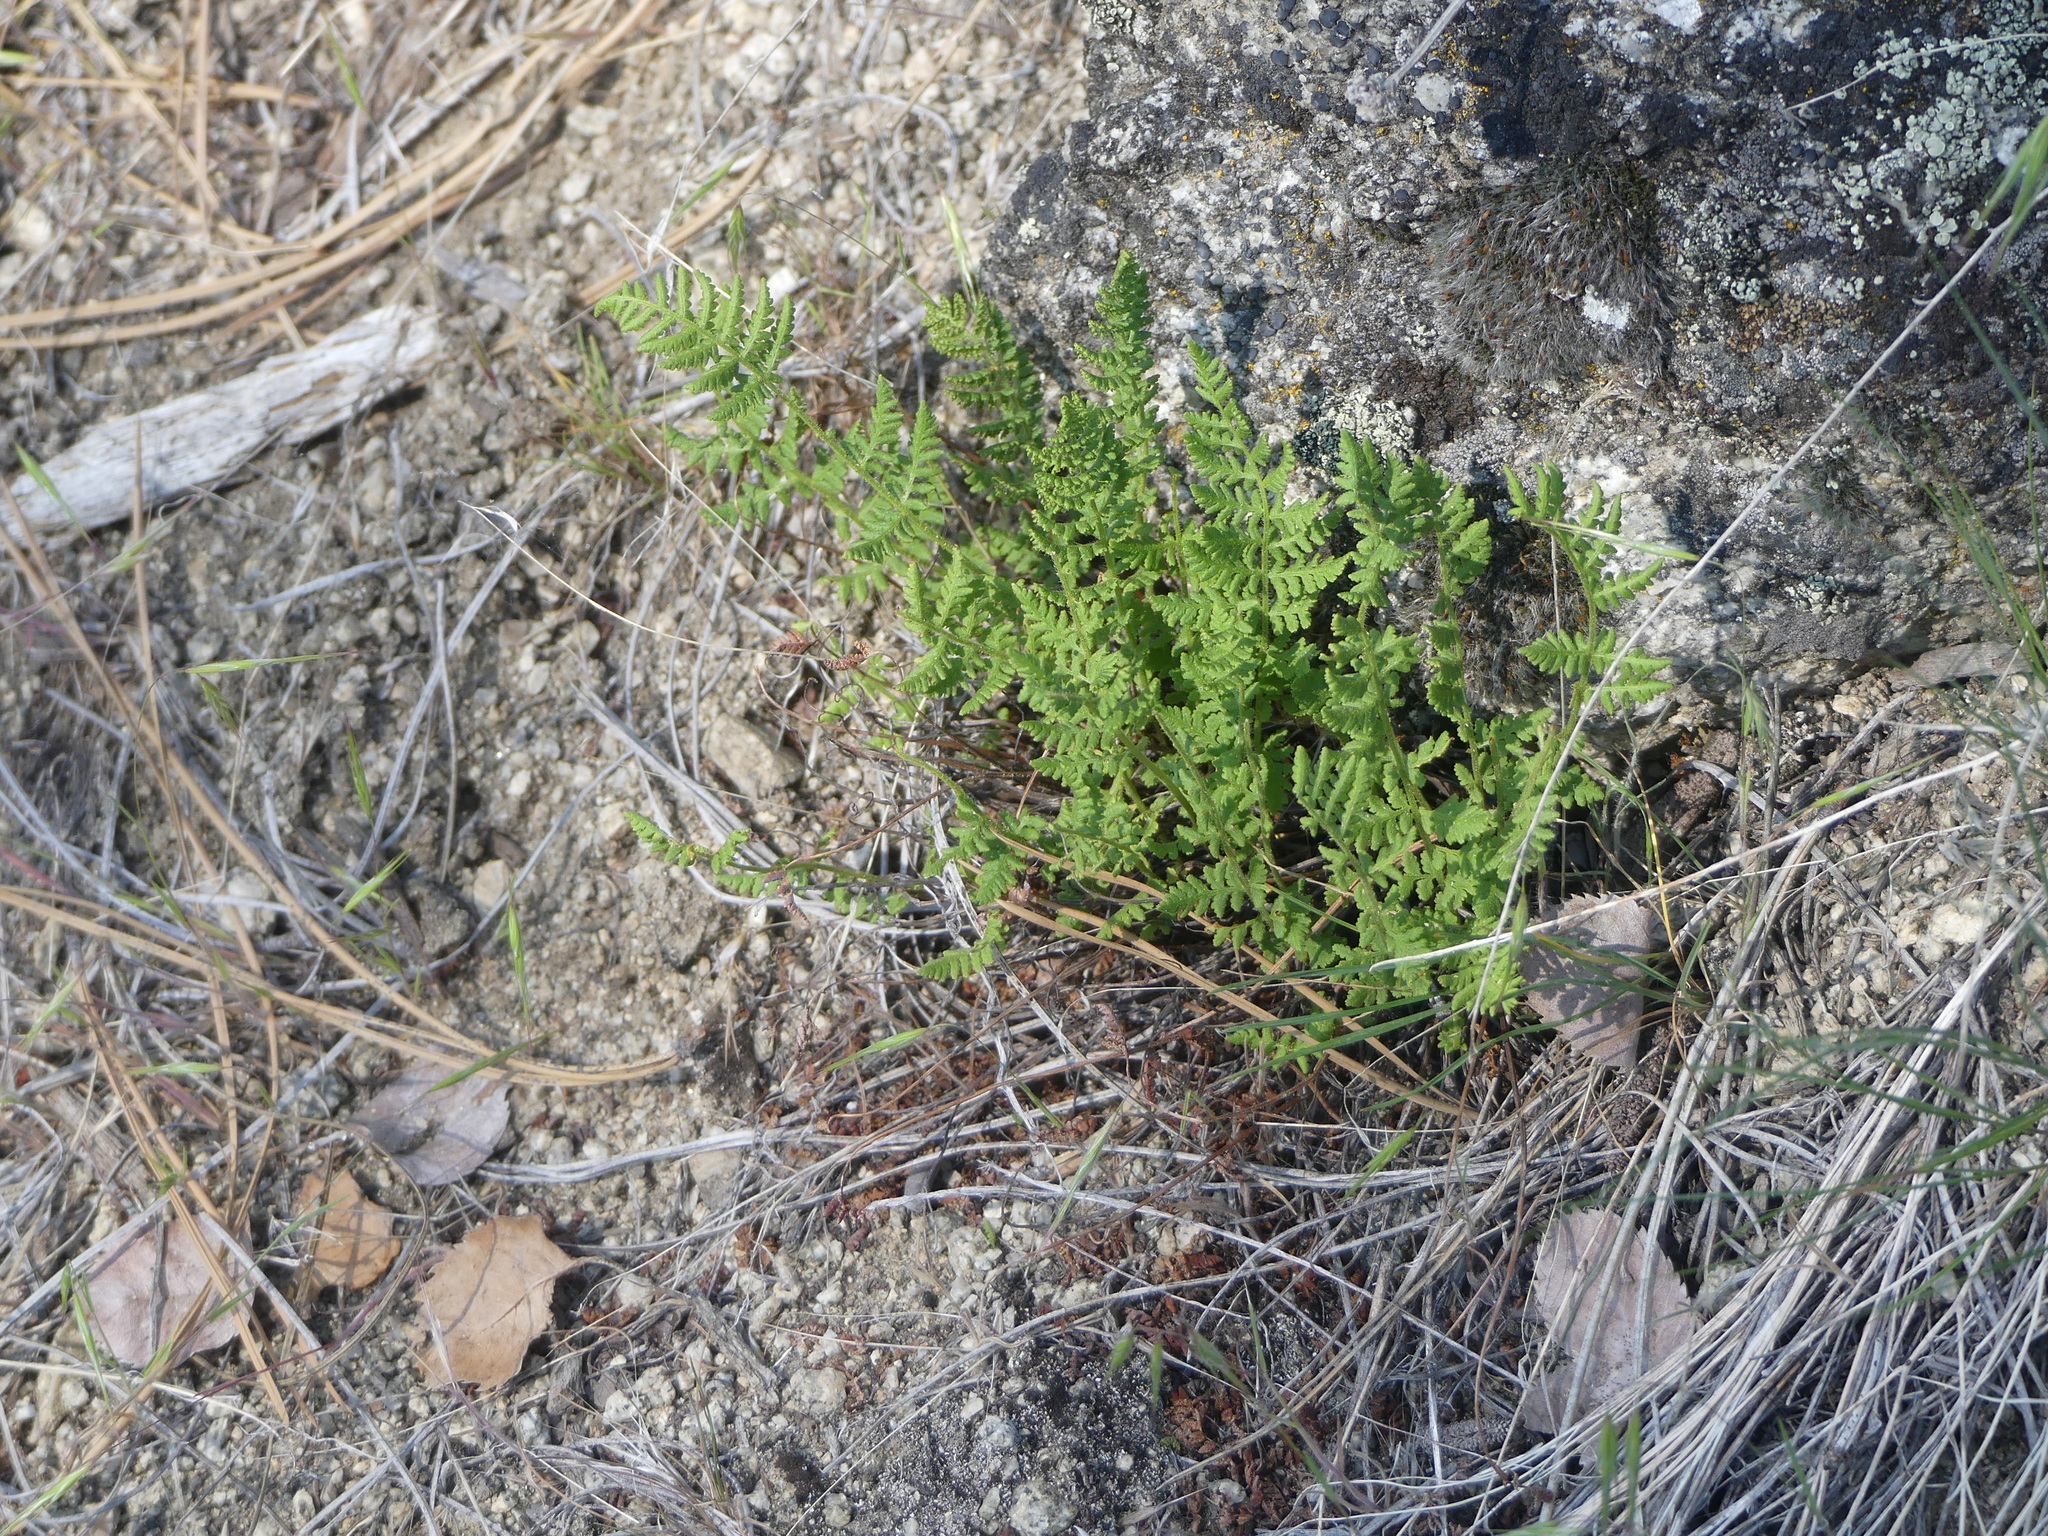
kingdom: Plantae
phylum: Tracheophyta
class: Polypodiopsida
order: Polypodiales
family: Woodsiaceae
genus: Physematium
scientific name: Physematium scopulinum
